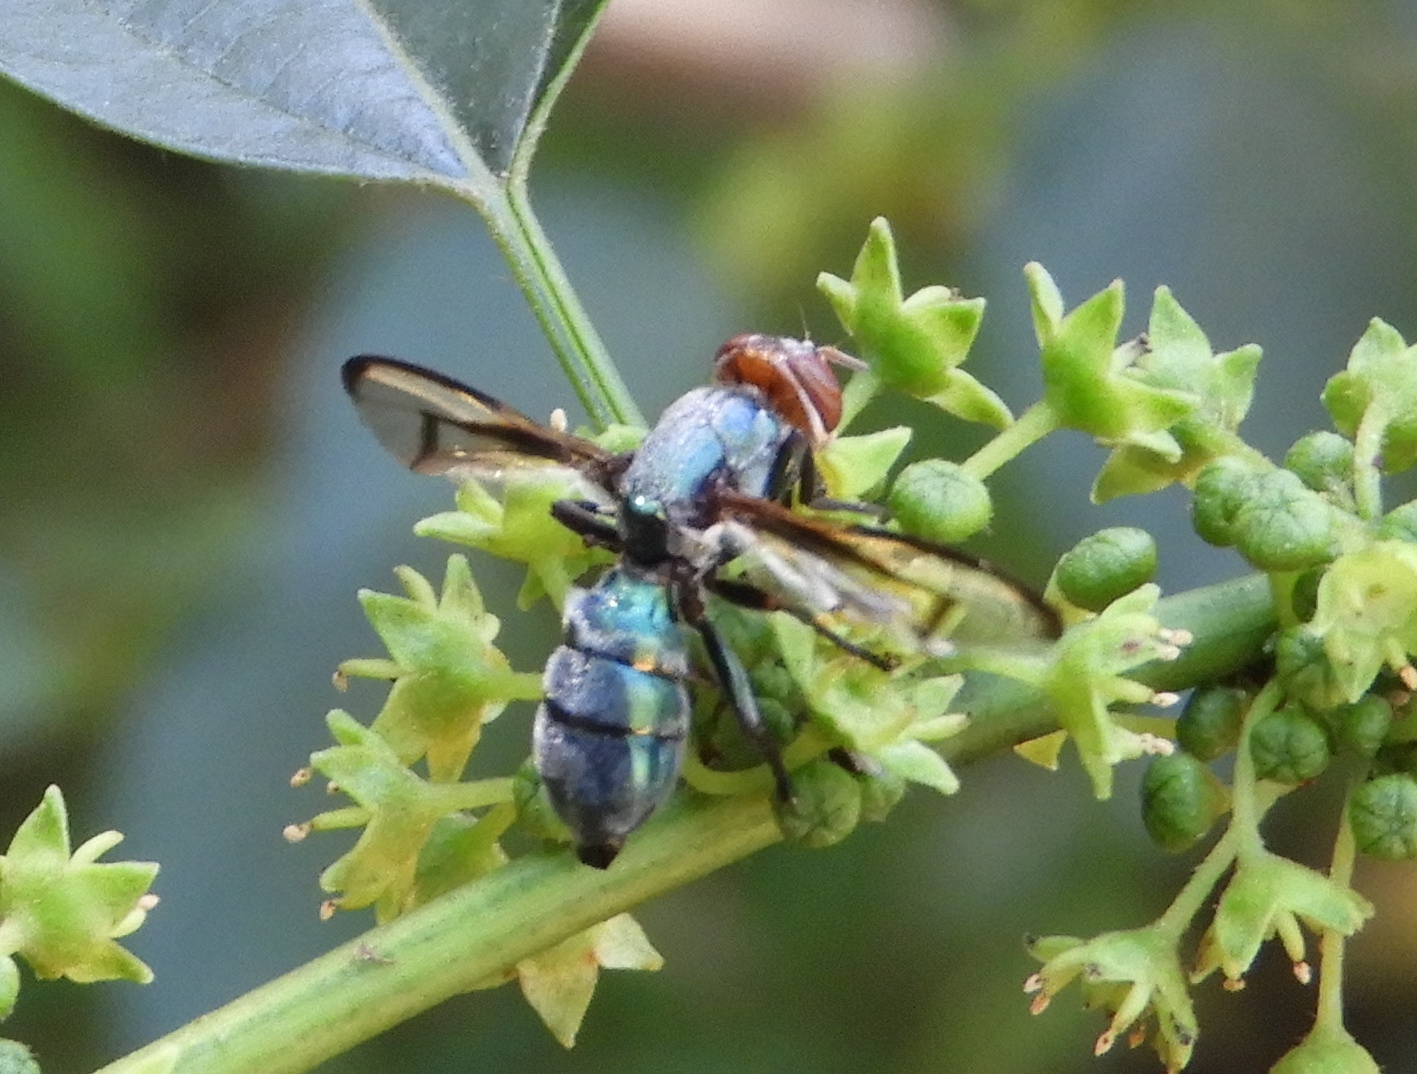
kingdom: Animalia
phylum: Arthropoda
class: Insecta
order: Diptera
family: Platystomatidae
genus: Senopterina
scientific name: Senopterina
